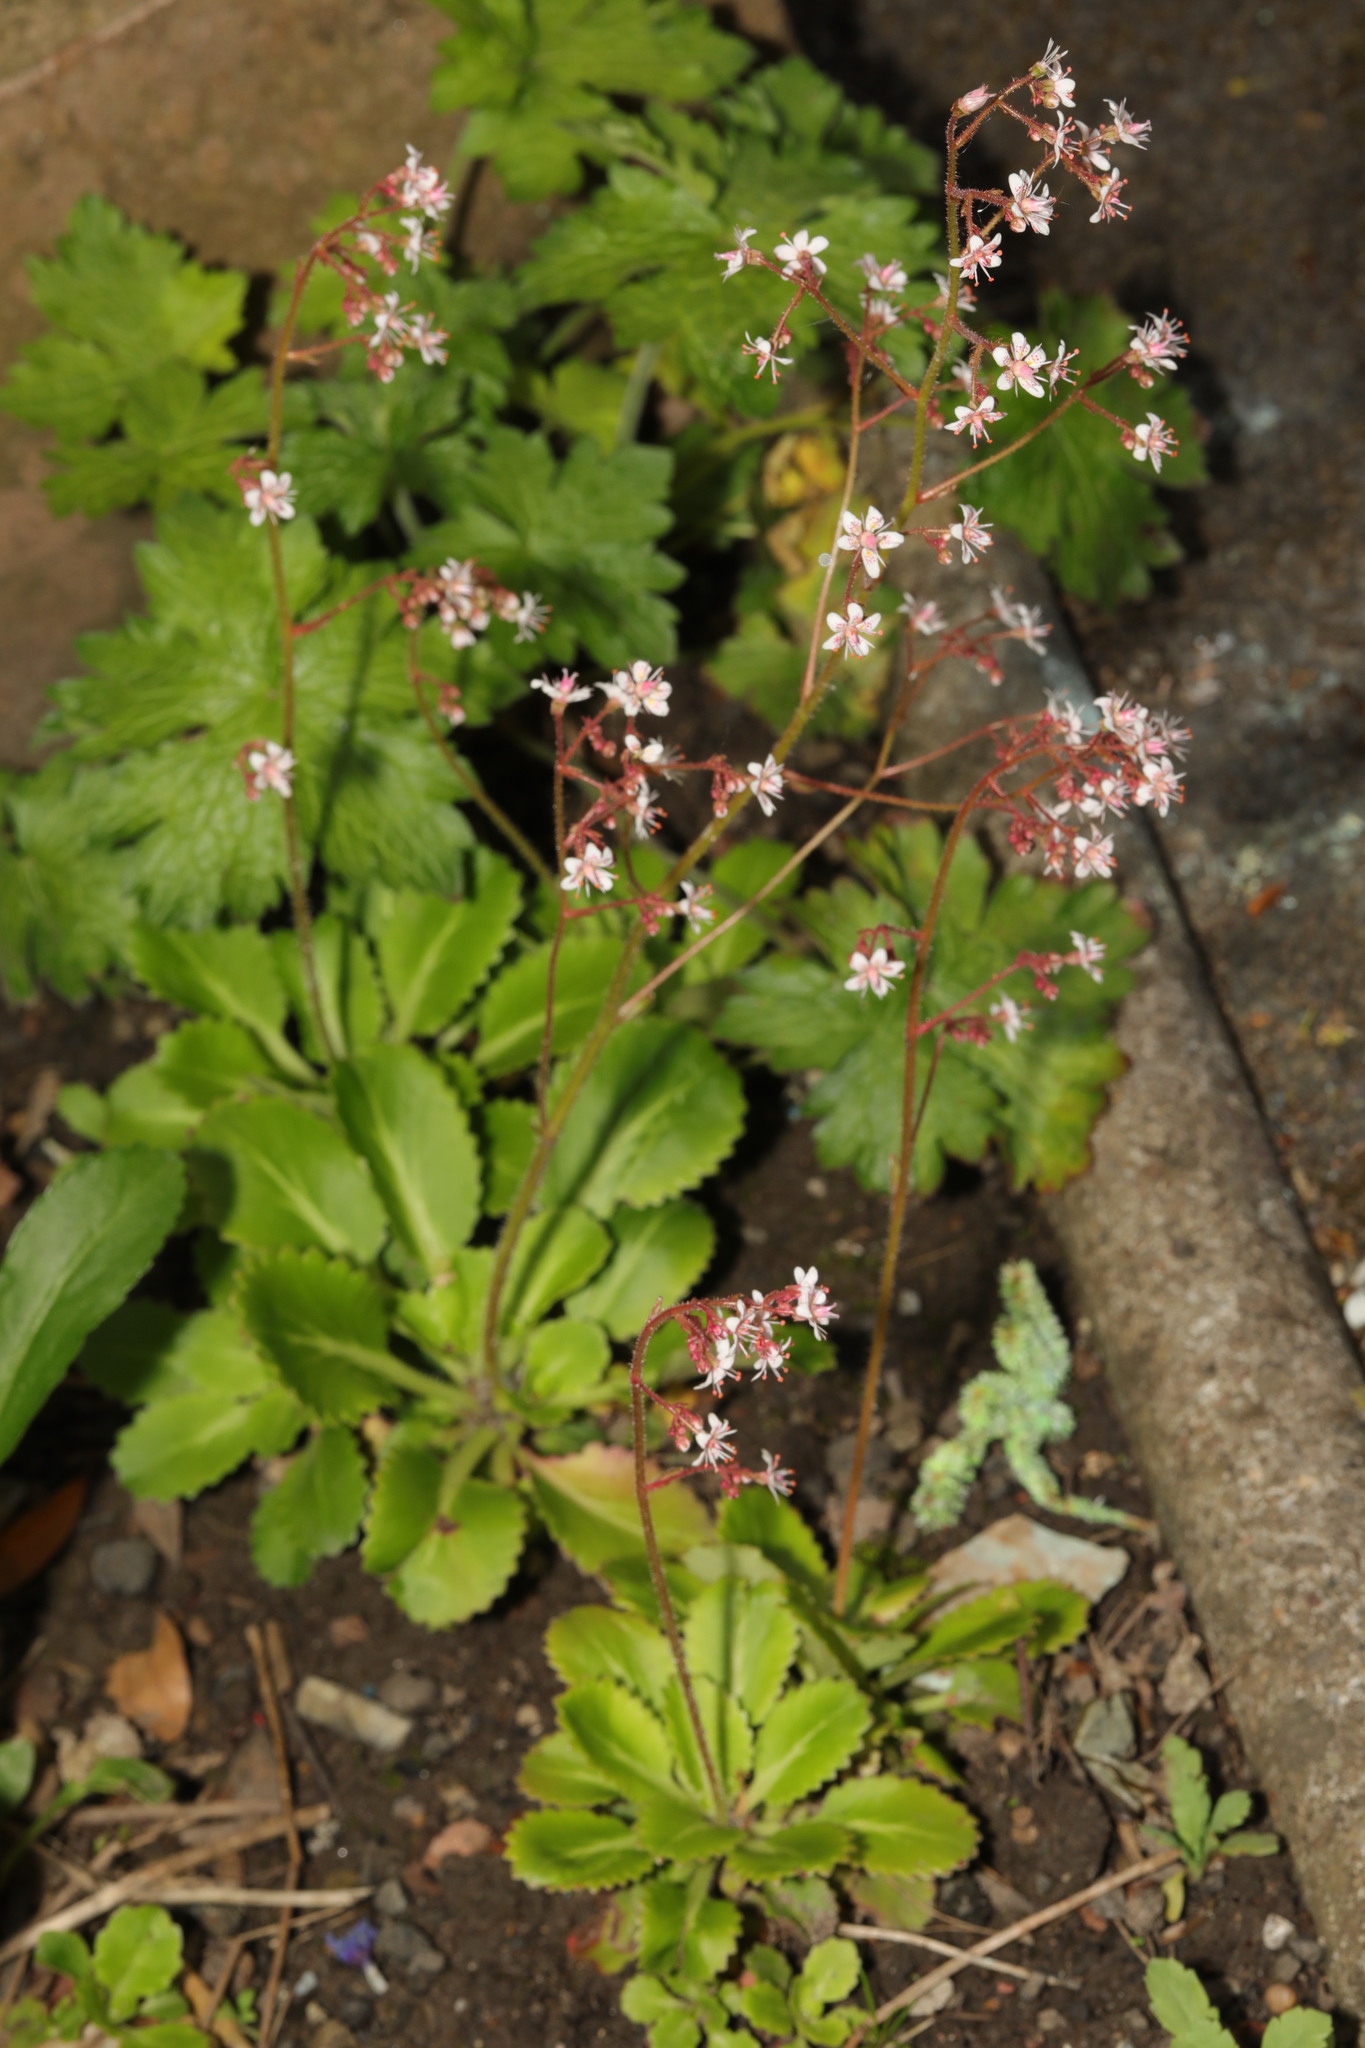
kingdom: Plantae
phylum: Tracheophyta
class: Magnoliopsida
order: Saxifragales
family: Saxifragaceae
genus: Saxifraga
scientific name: Saxifraga urbium
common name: Londonpride
